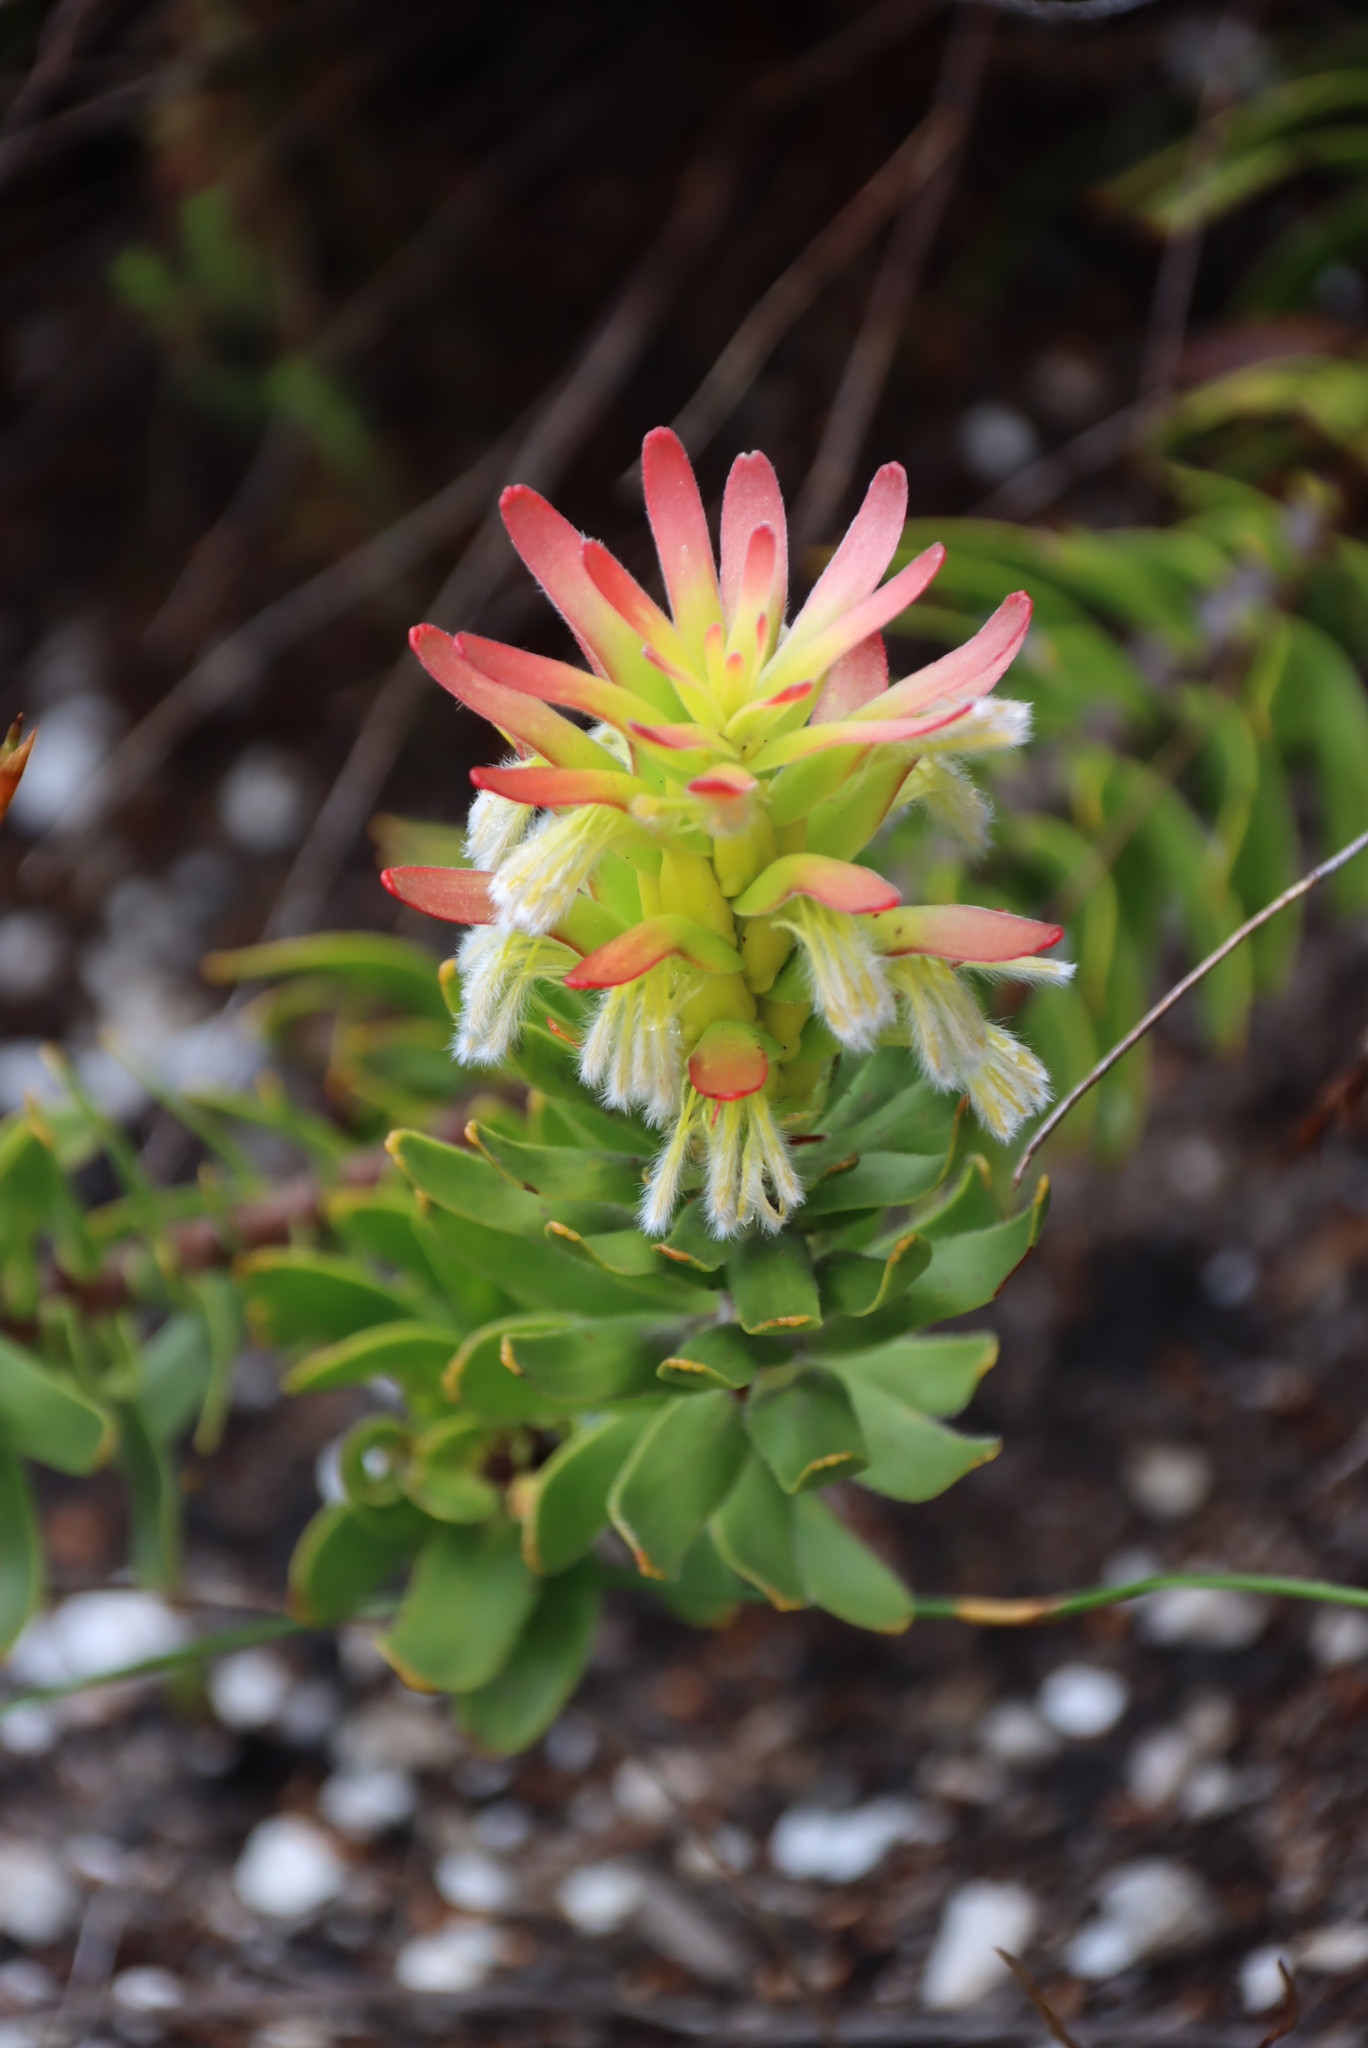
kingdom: Plantae
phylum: Tracheophyta
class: Magnoliopsida
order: Proteales
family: Proteaceae
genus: Mimetes
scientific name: Mimetes cucullatus
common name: Common pagoda
